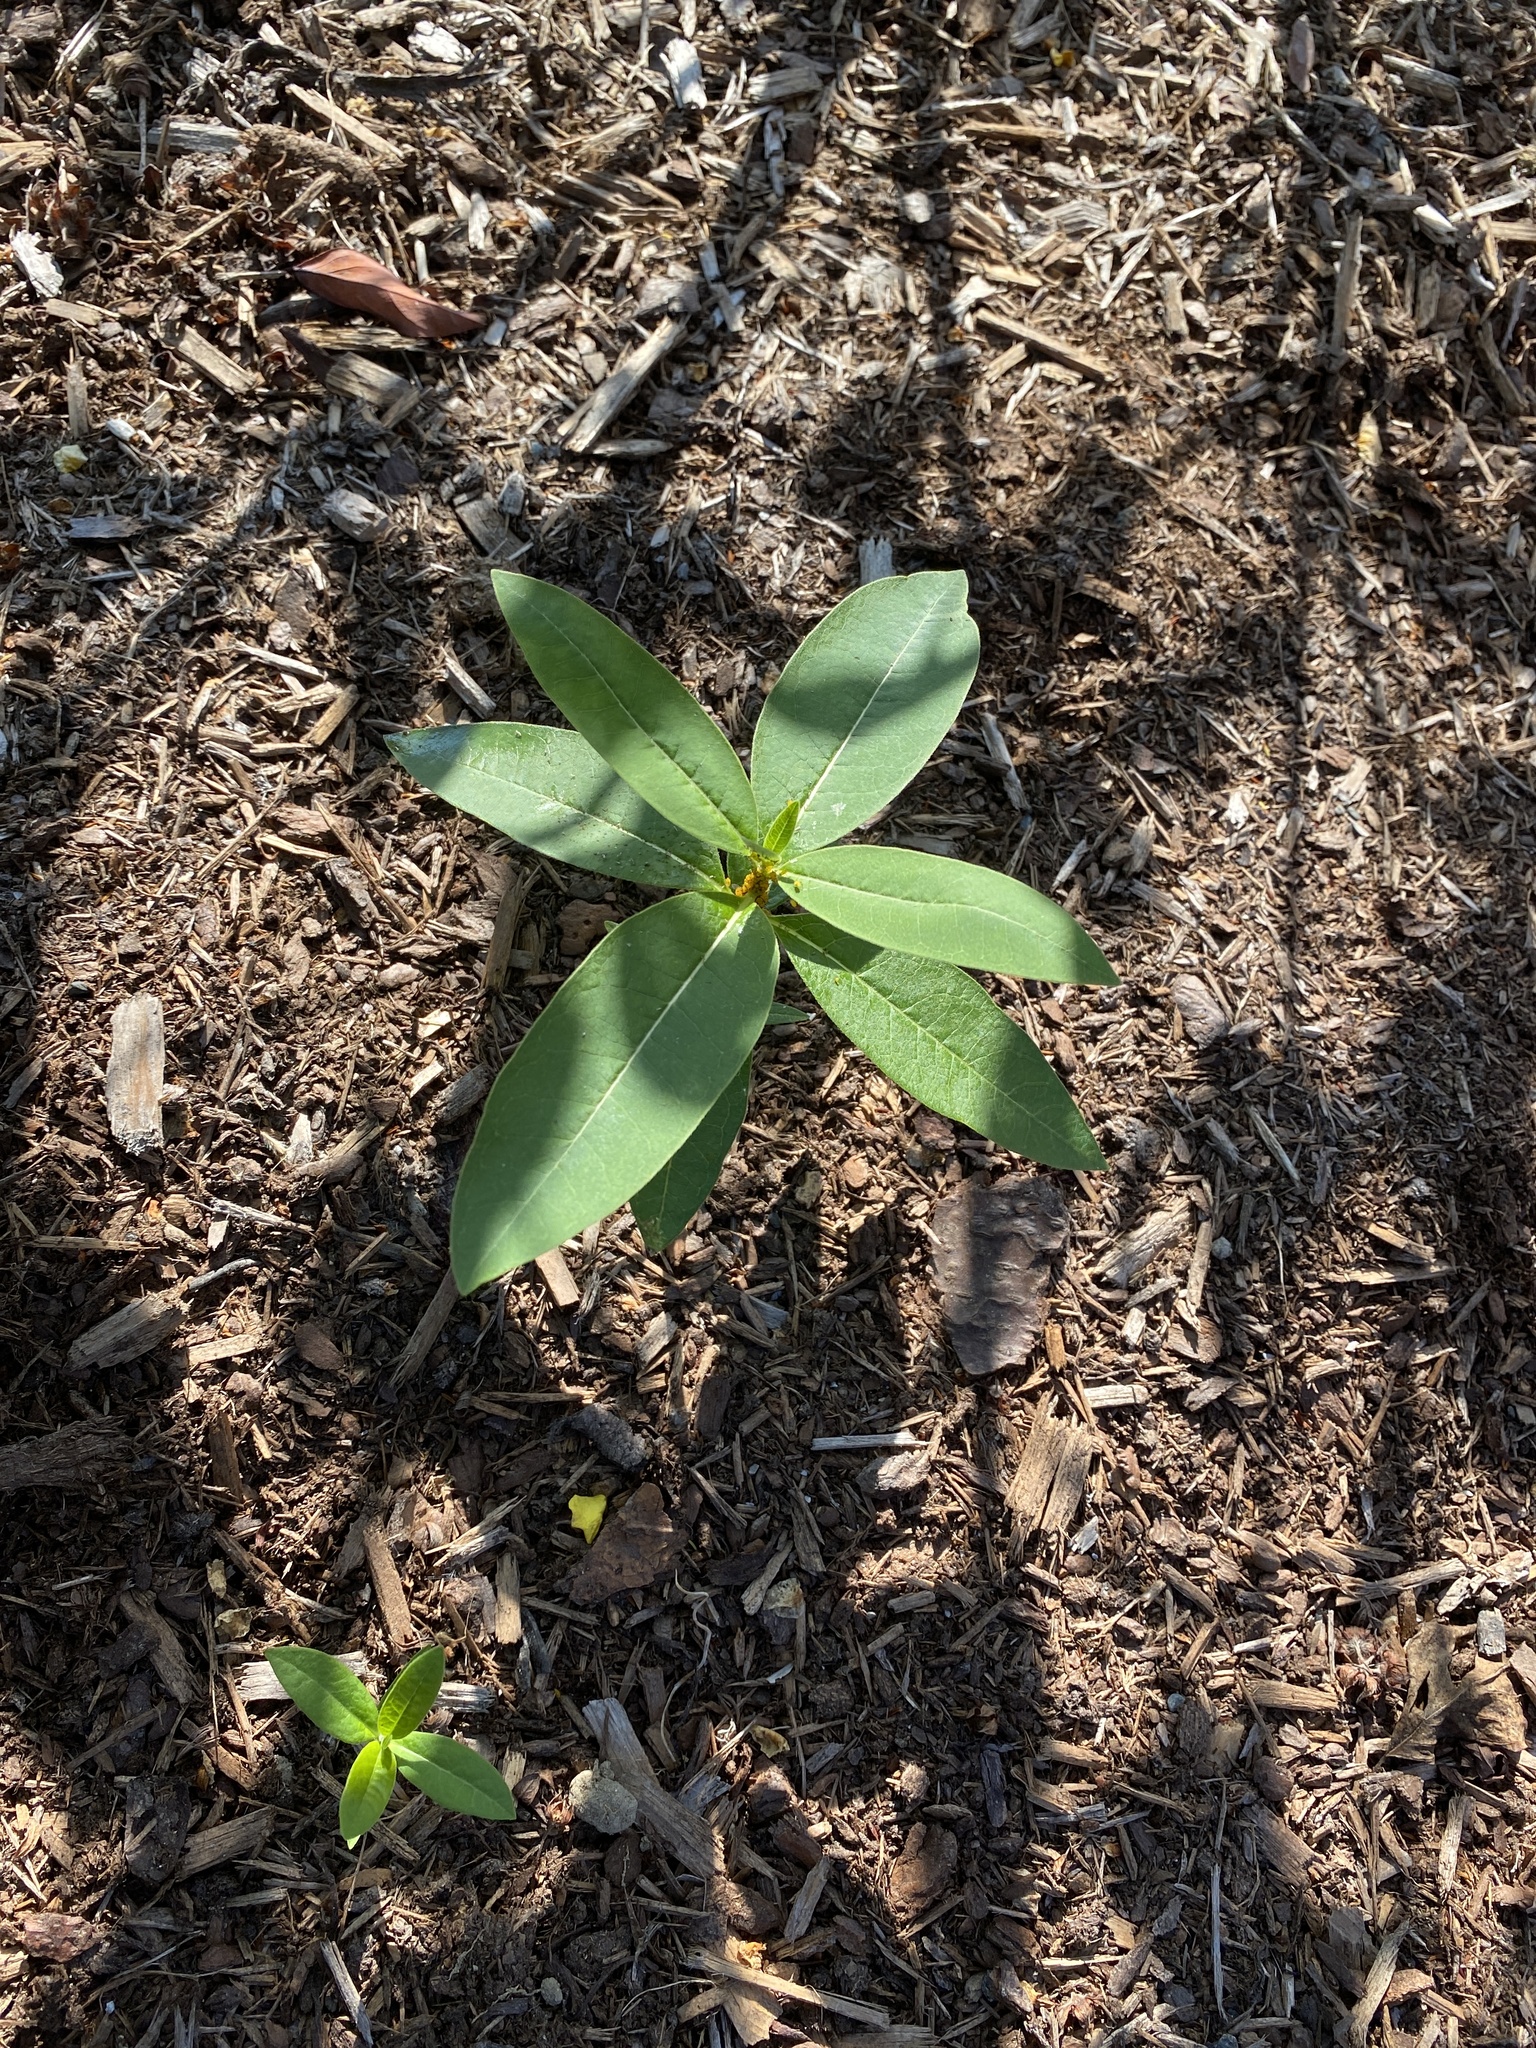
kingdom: Plantae
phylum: Tracheophyta
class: Magnoliopsida
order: Gentianales
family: Apocynaceae
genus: Asclepias
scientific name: Asclepias syriaca
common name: Common milkweed
